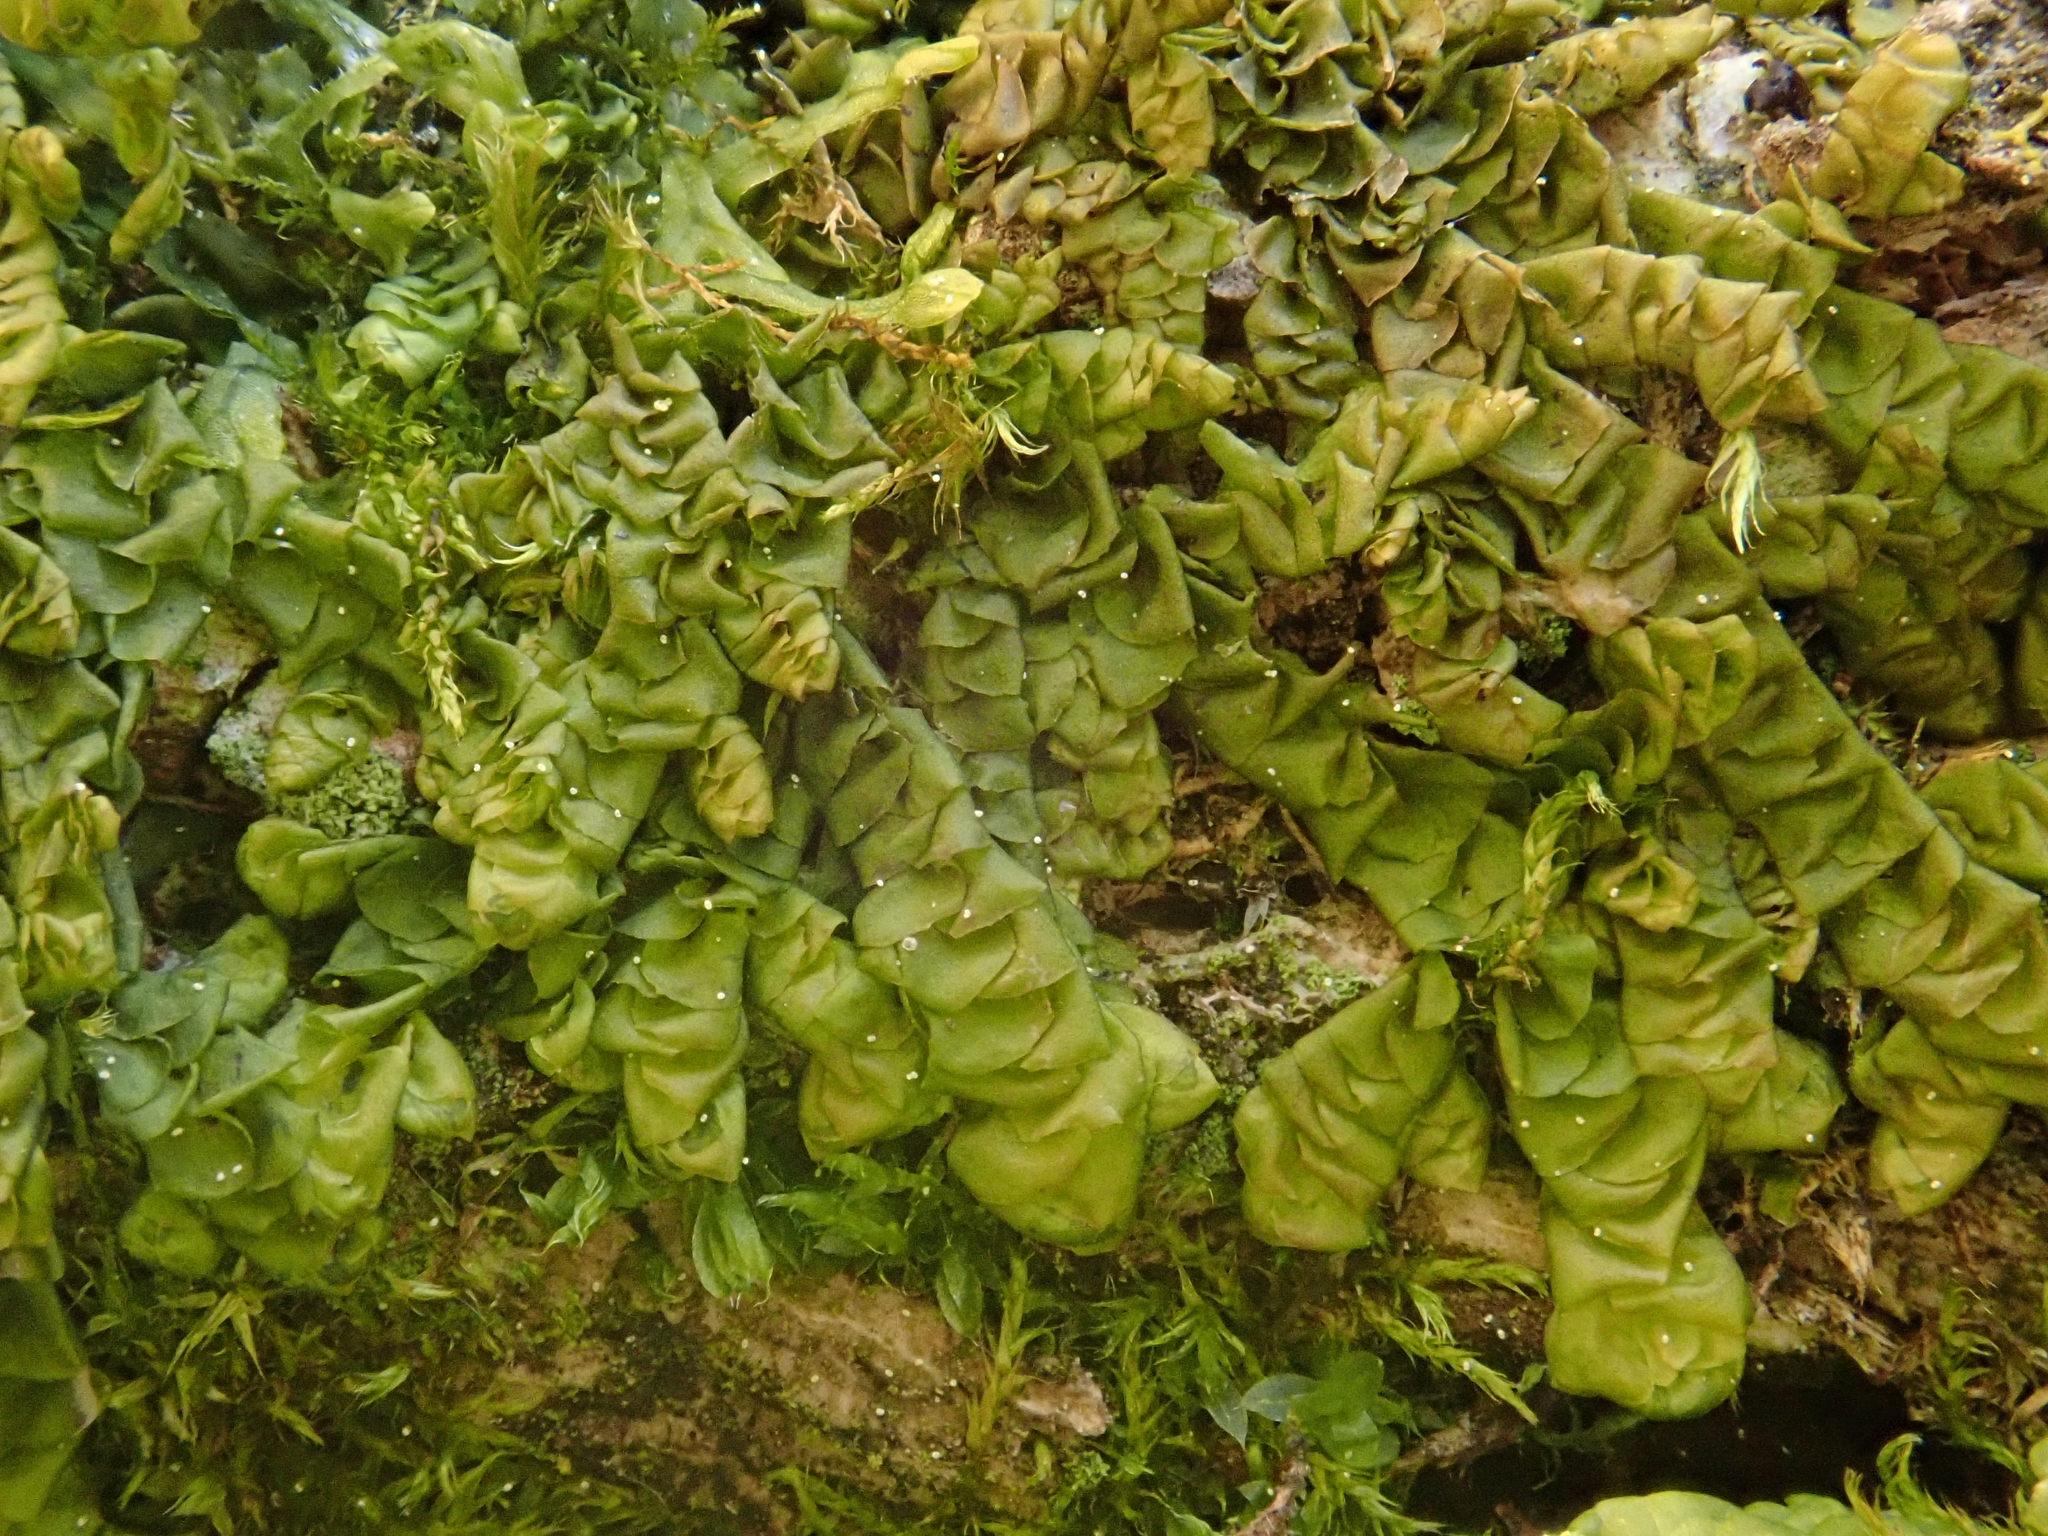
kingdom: Plantae
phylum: Marchantiophyta
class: Jungermanniopsida
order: Porellales
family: Porellaceae
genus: Porella
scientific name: Porella platyphylla
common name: Wall scalewort
